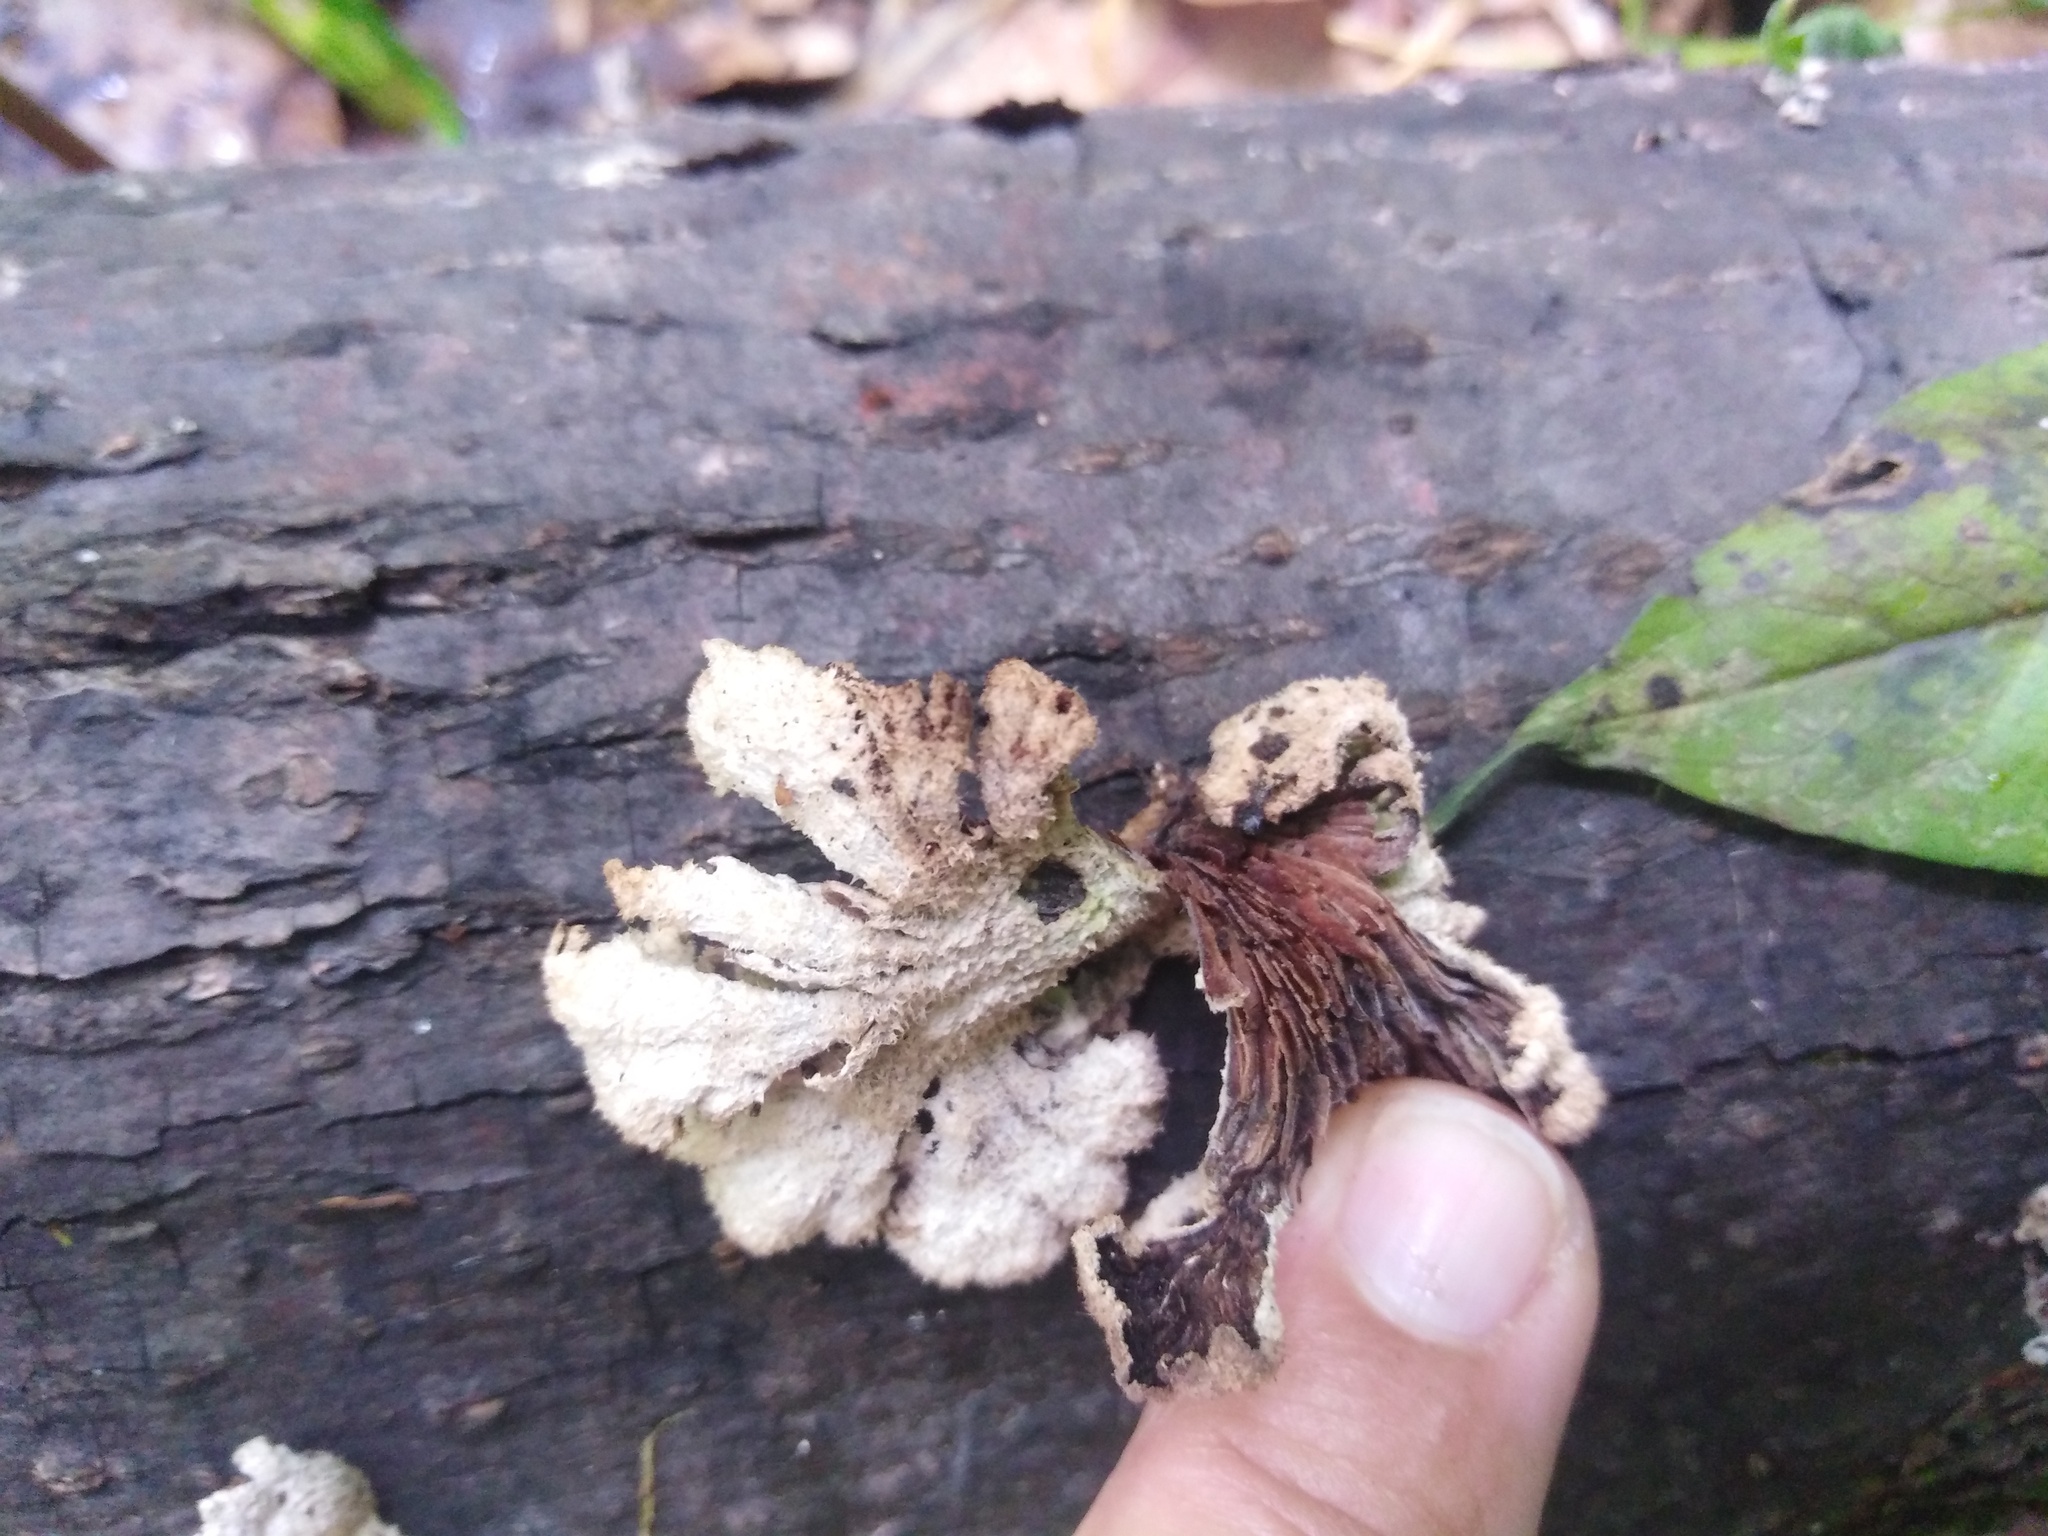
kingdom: Fungi
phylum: Basidiomycota
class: Agaricomycetes
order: Agaricales
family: Schizophyllaceae
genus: Schizophyllum
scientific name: Schizophyllum commune
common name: Common porecrust
